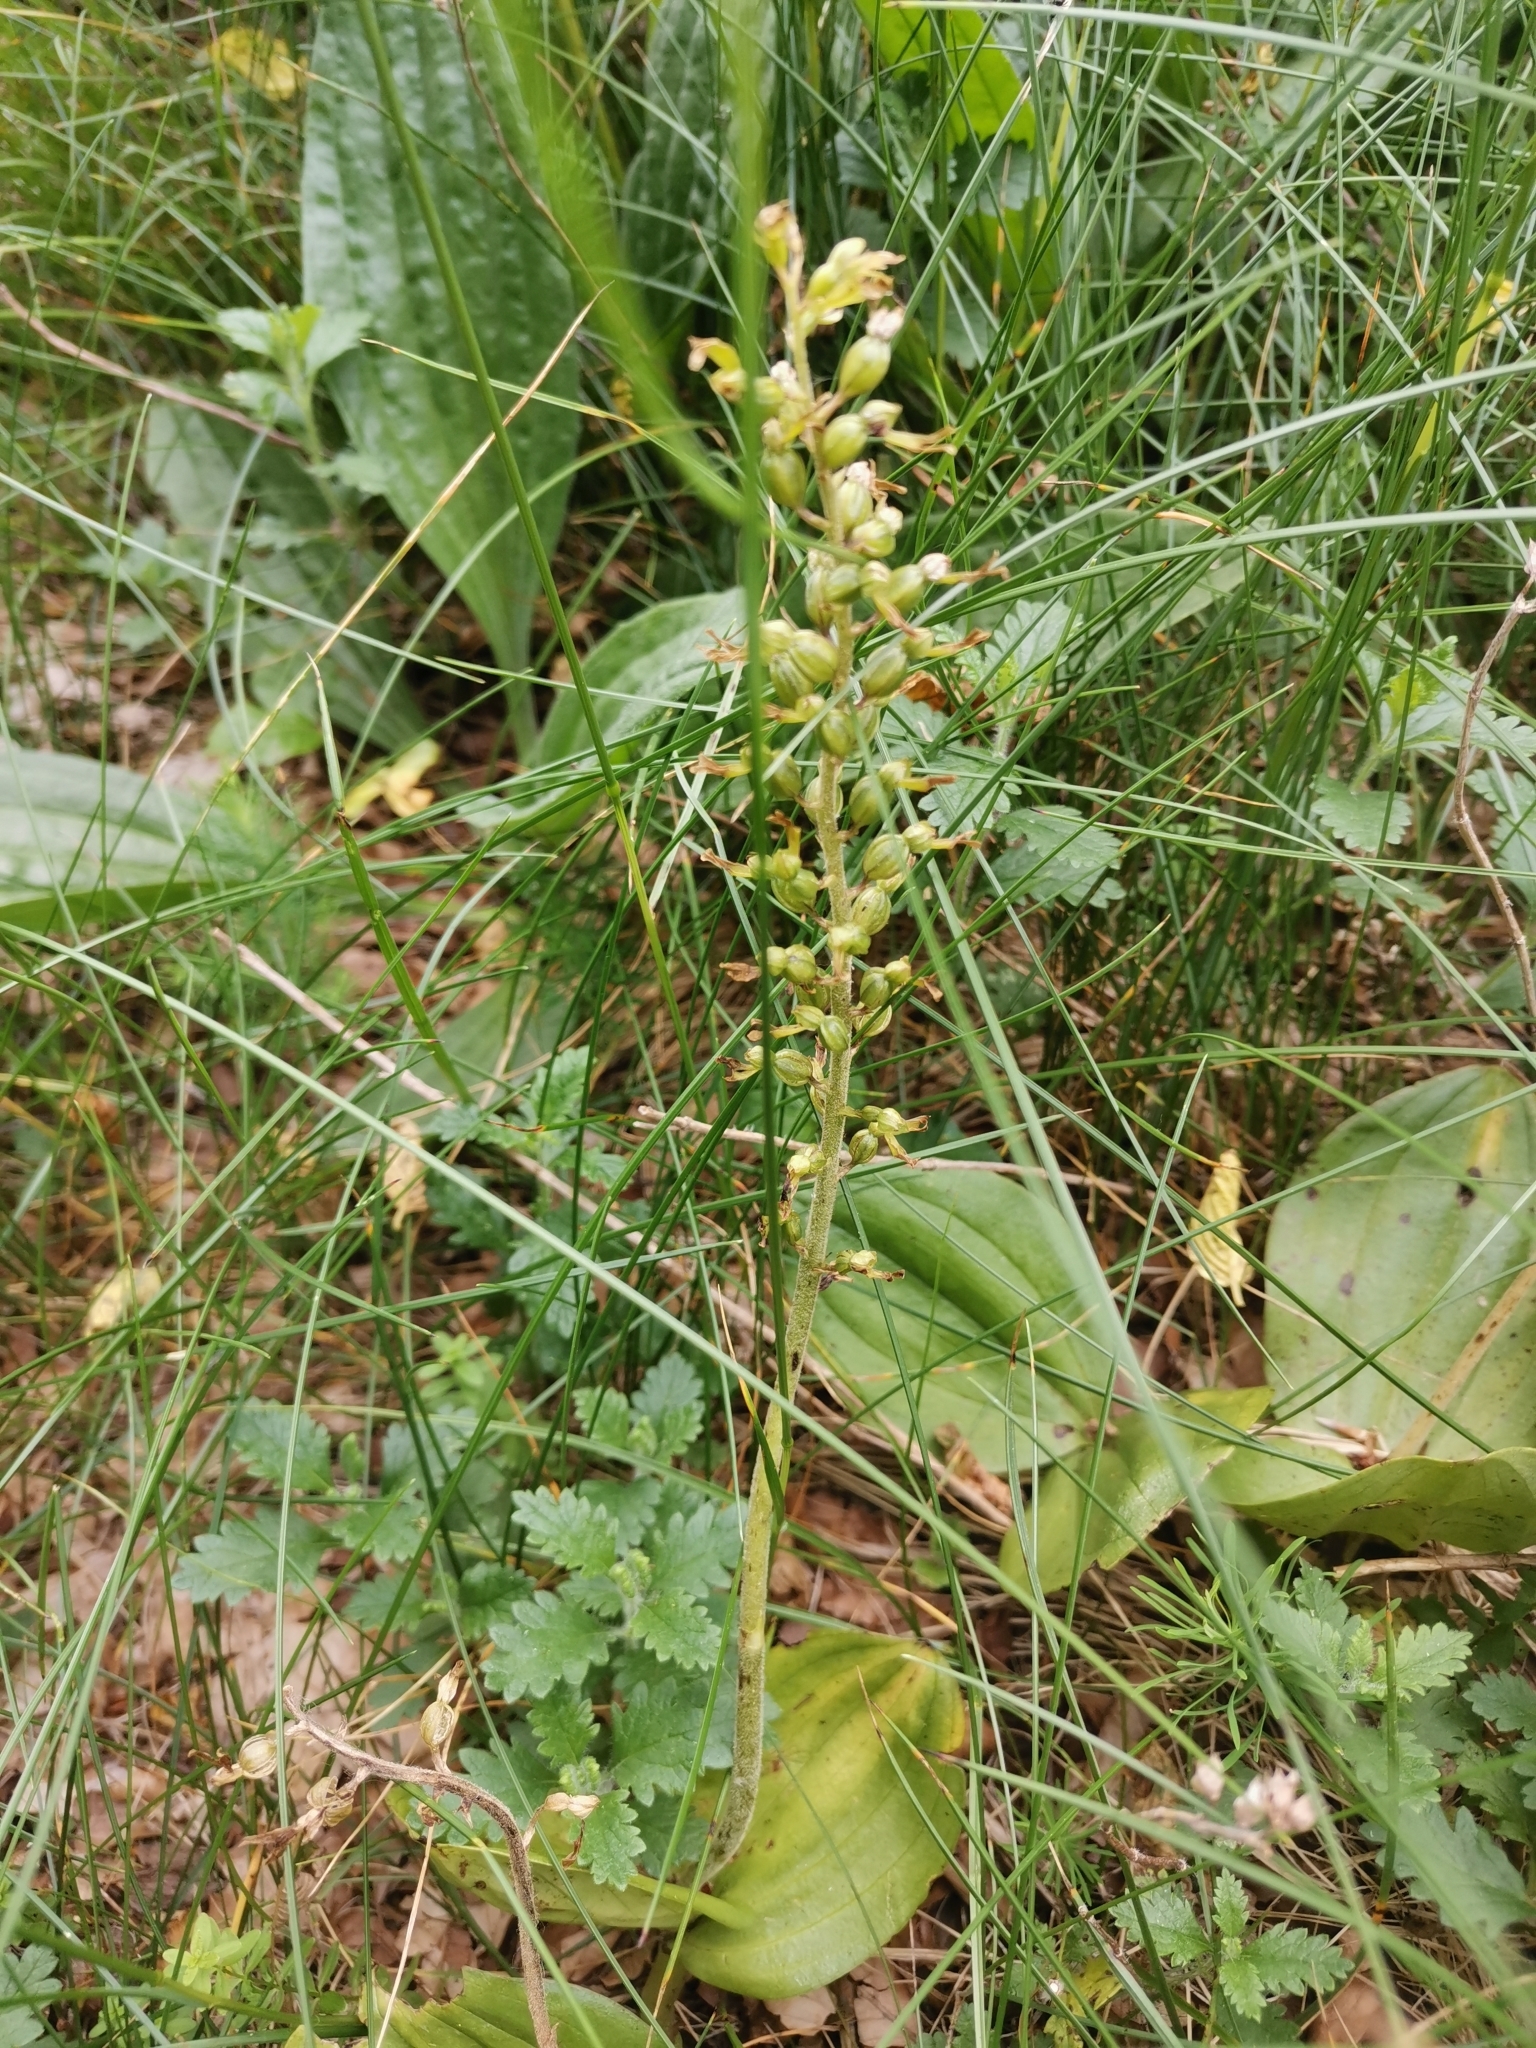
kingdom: Plantae
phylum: Tracheophyta
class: Liliopsida
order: Asparagales
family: Orchidaceae
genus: Neottia
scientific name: Neottia ovata
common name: Common twayblade
